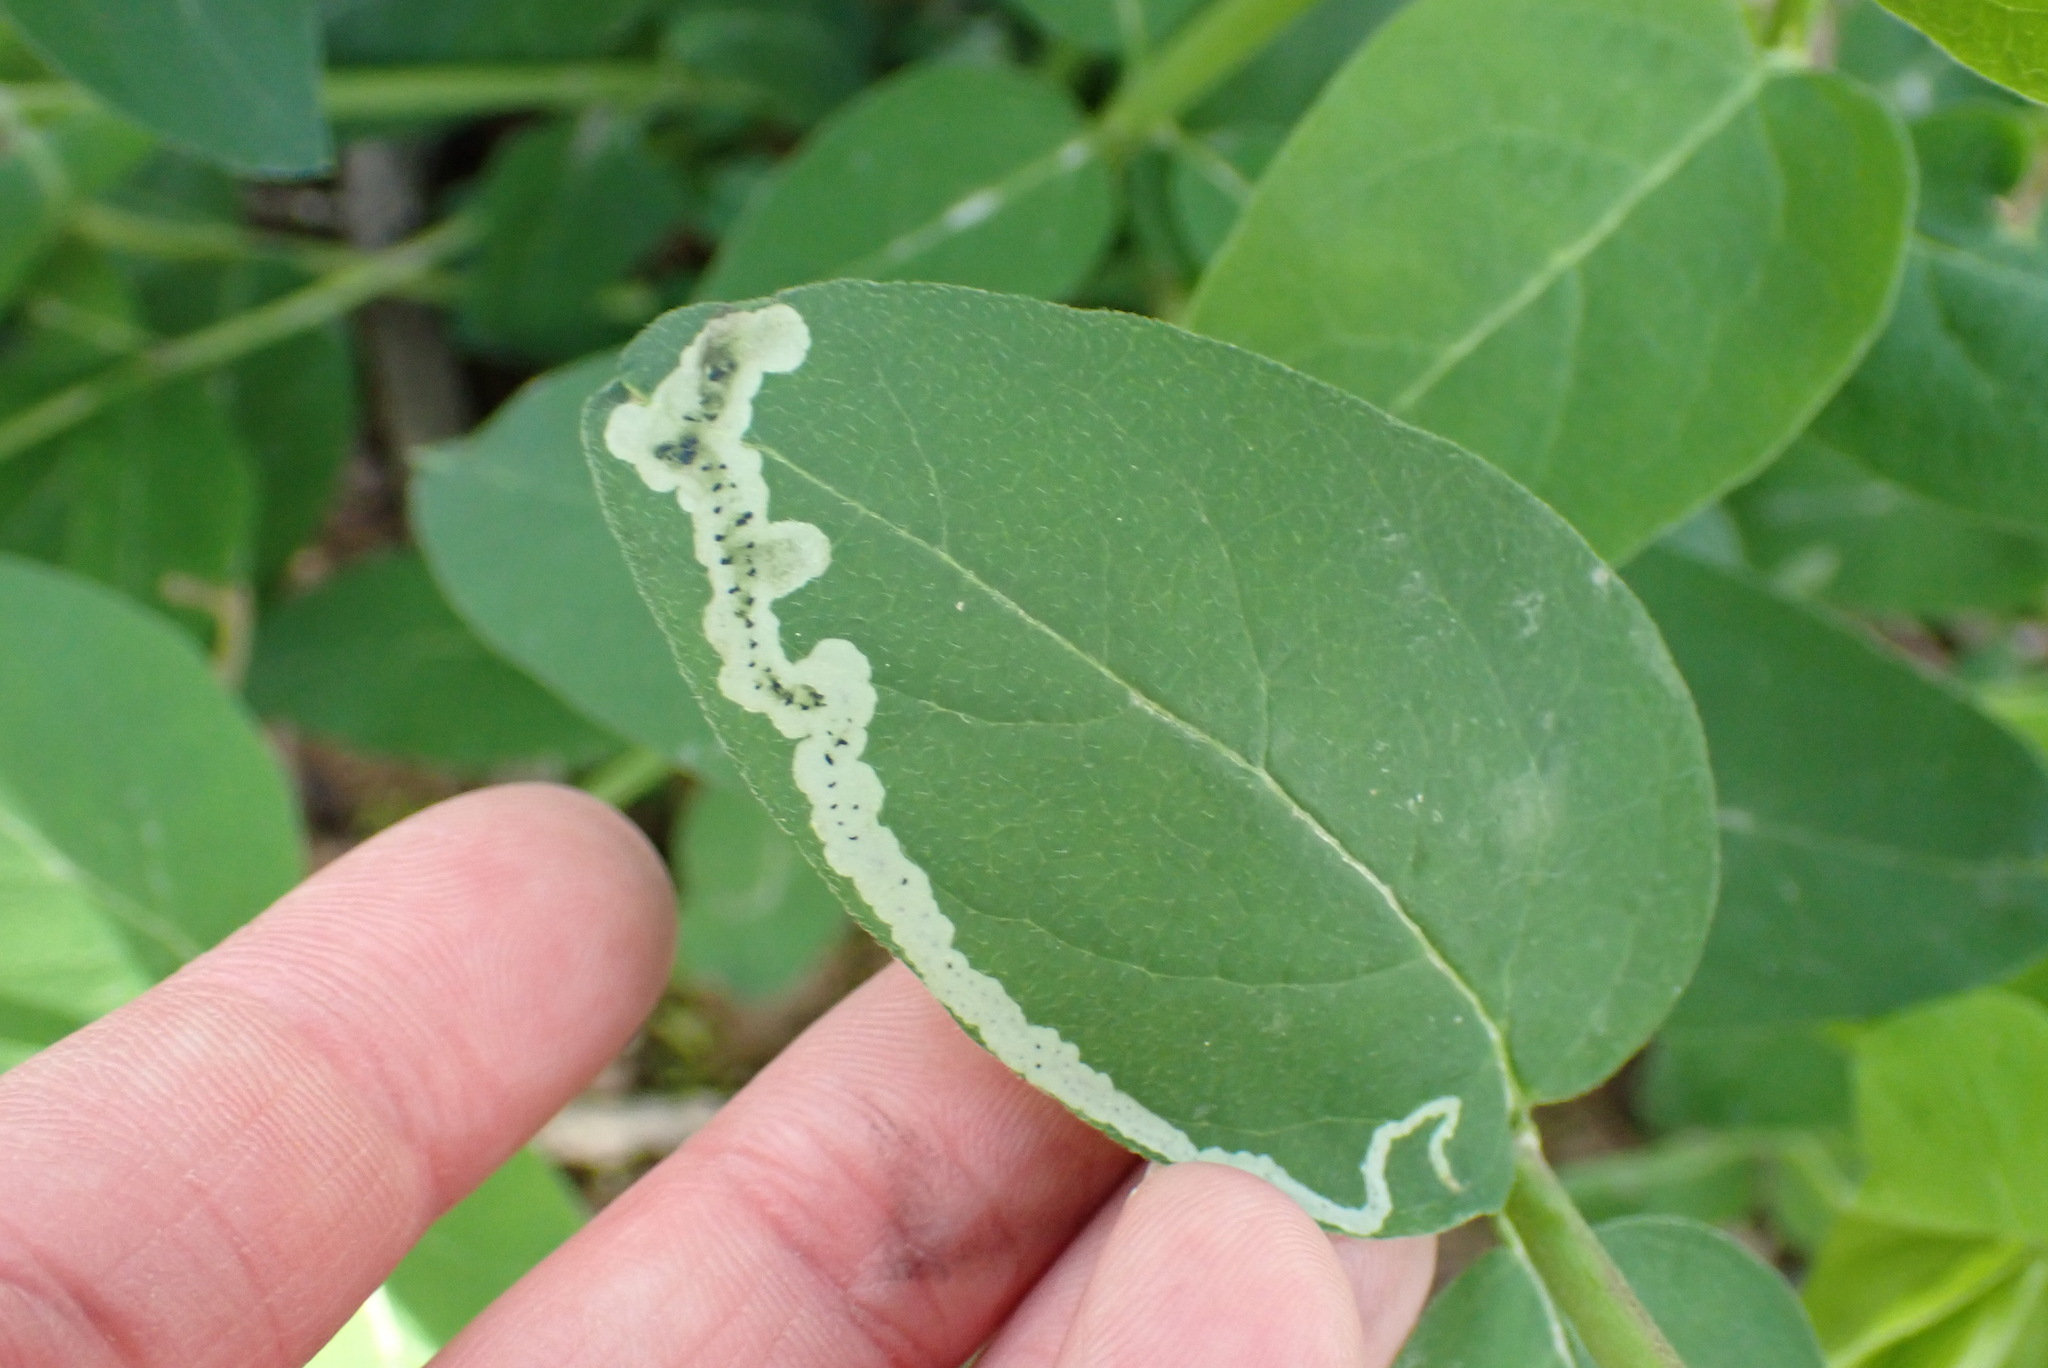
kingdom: Animalia
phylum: Arthropoda
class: Insecta
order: Diptera
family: Agromyzidae
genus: Aulagromyza
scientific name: Aulagromyza cornigera
